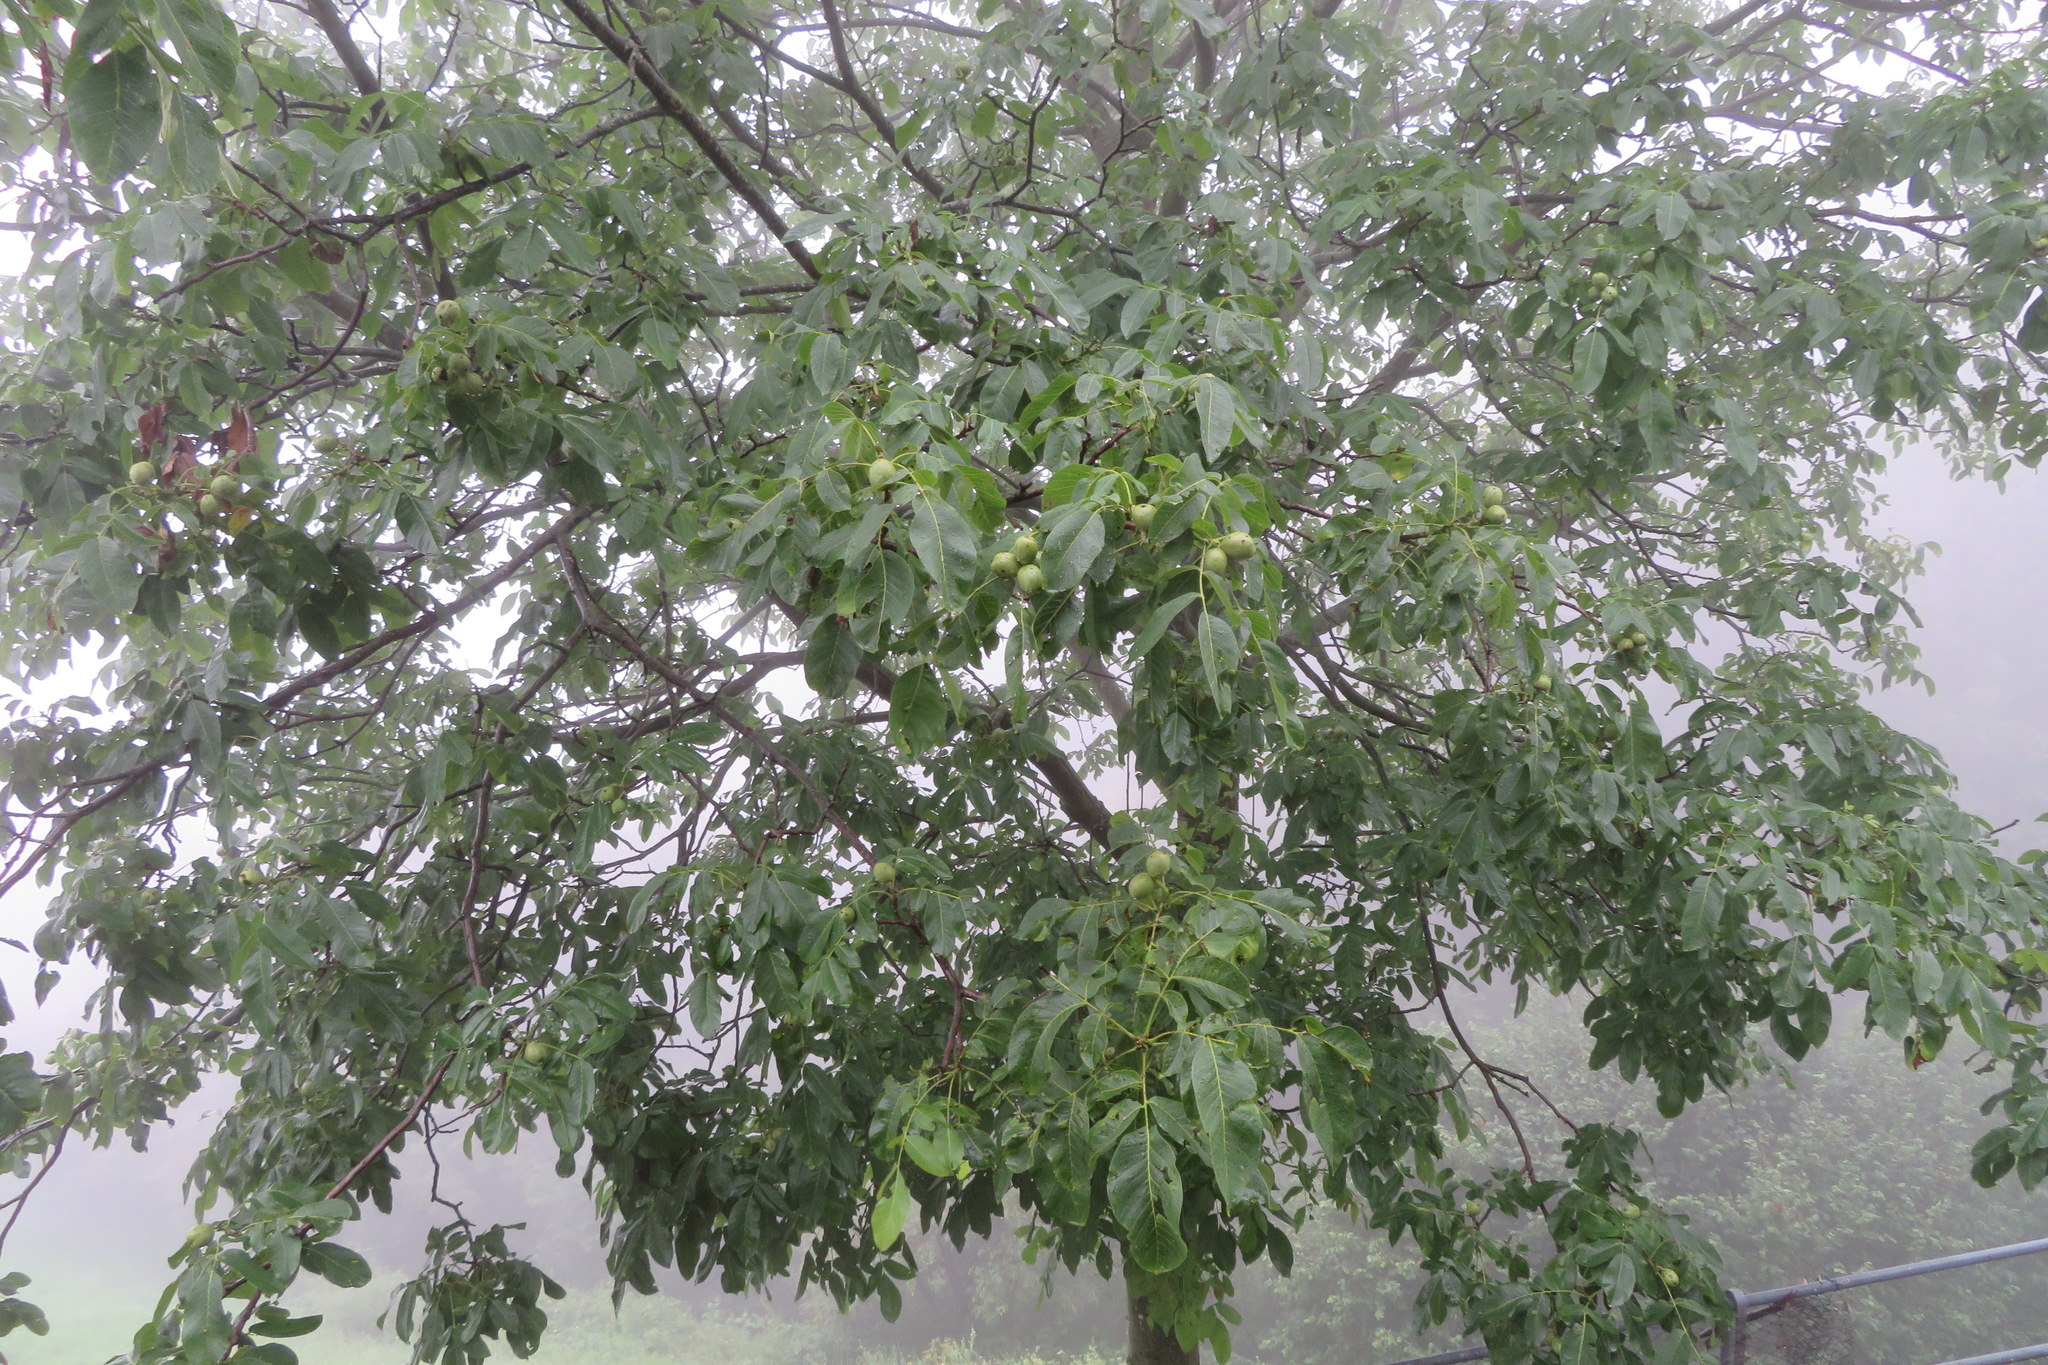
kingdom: Plantae
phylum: Tracheophyta
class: Magnoliopsida
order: Fagales
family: Juglandaceae
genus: Juglans
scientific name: Juglans regia
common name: Walnut
